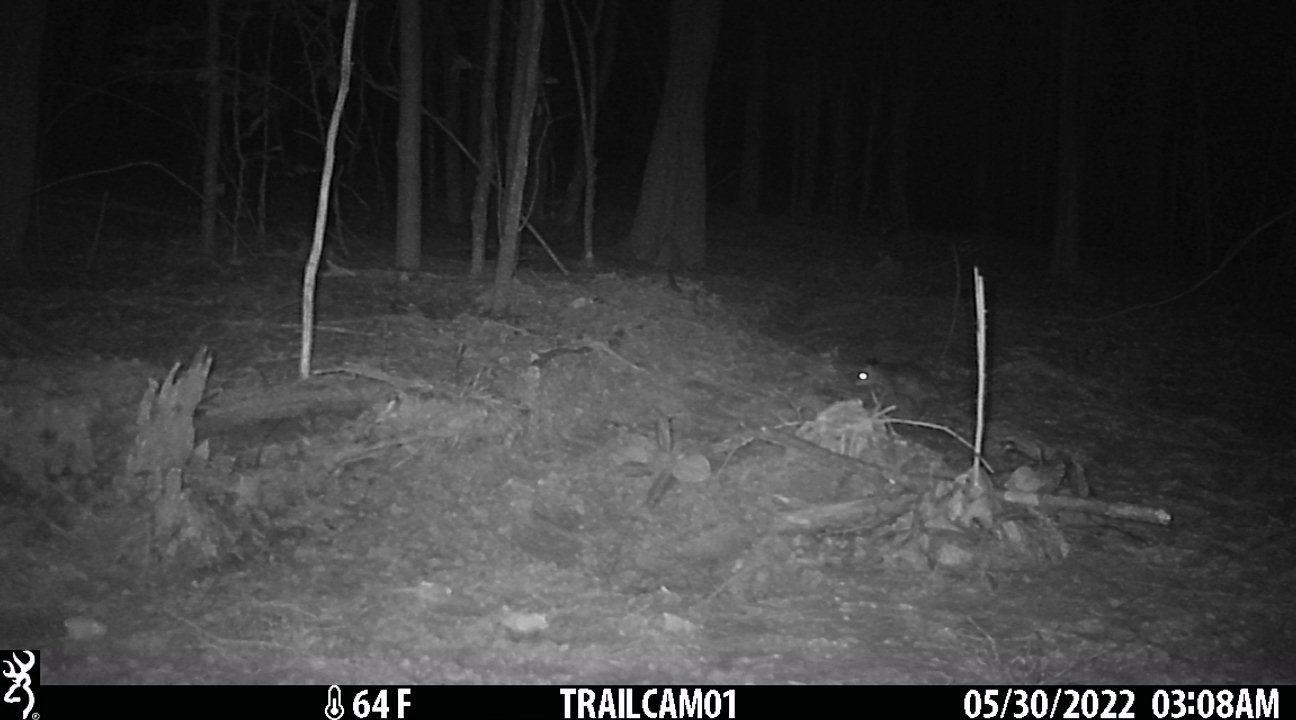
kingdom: Animalia
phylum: Chordata
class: Mammalia
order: Didelphimorphia
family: Didelphidae
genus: Didelphis
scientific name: Didelphis virginiana
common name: Virginia opossum
